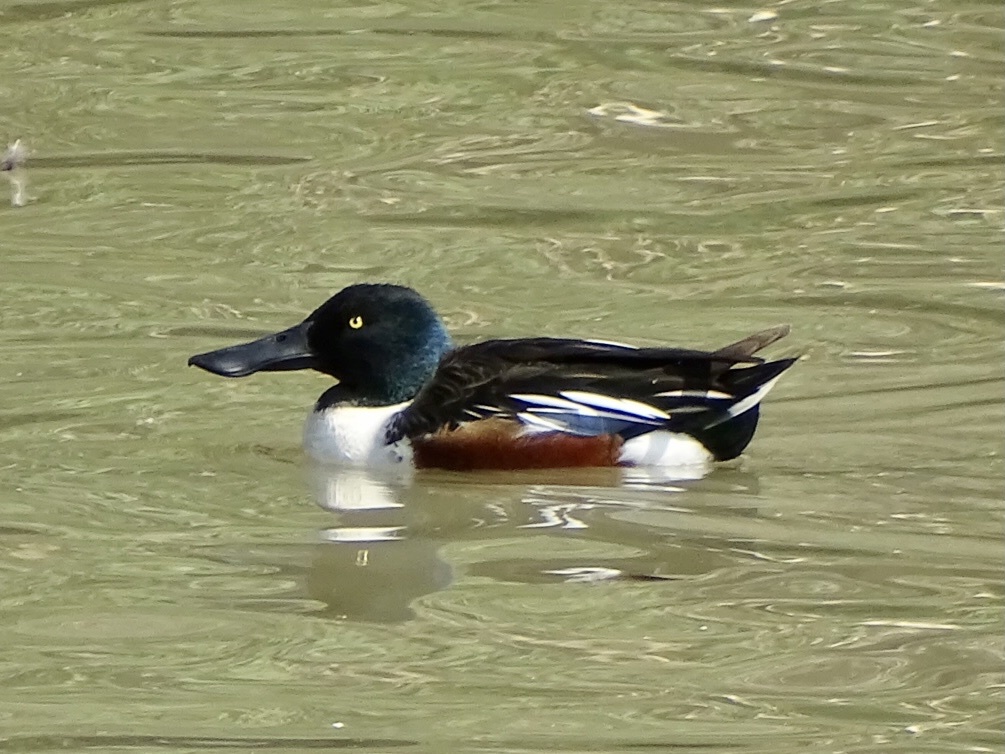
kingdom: Animalia
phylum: Chordata
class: Aves
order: Anseriformes
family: Anatidae
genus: Spatula
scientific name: Spatula clypeata
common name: Northern shoveler
